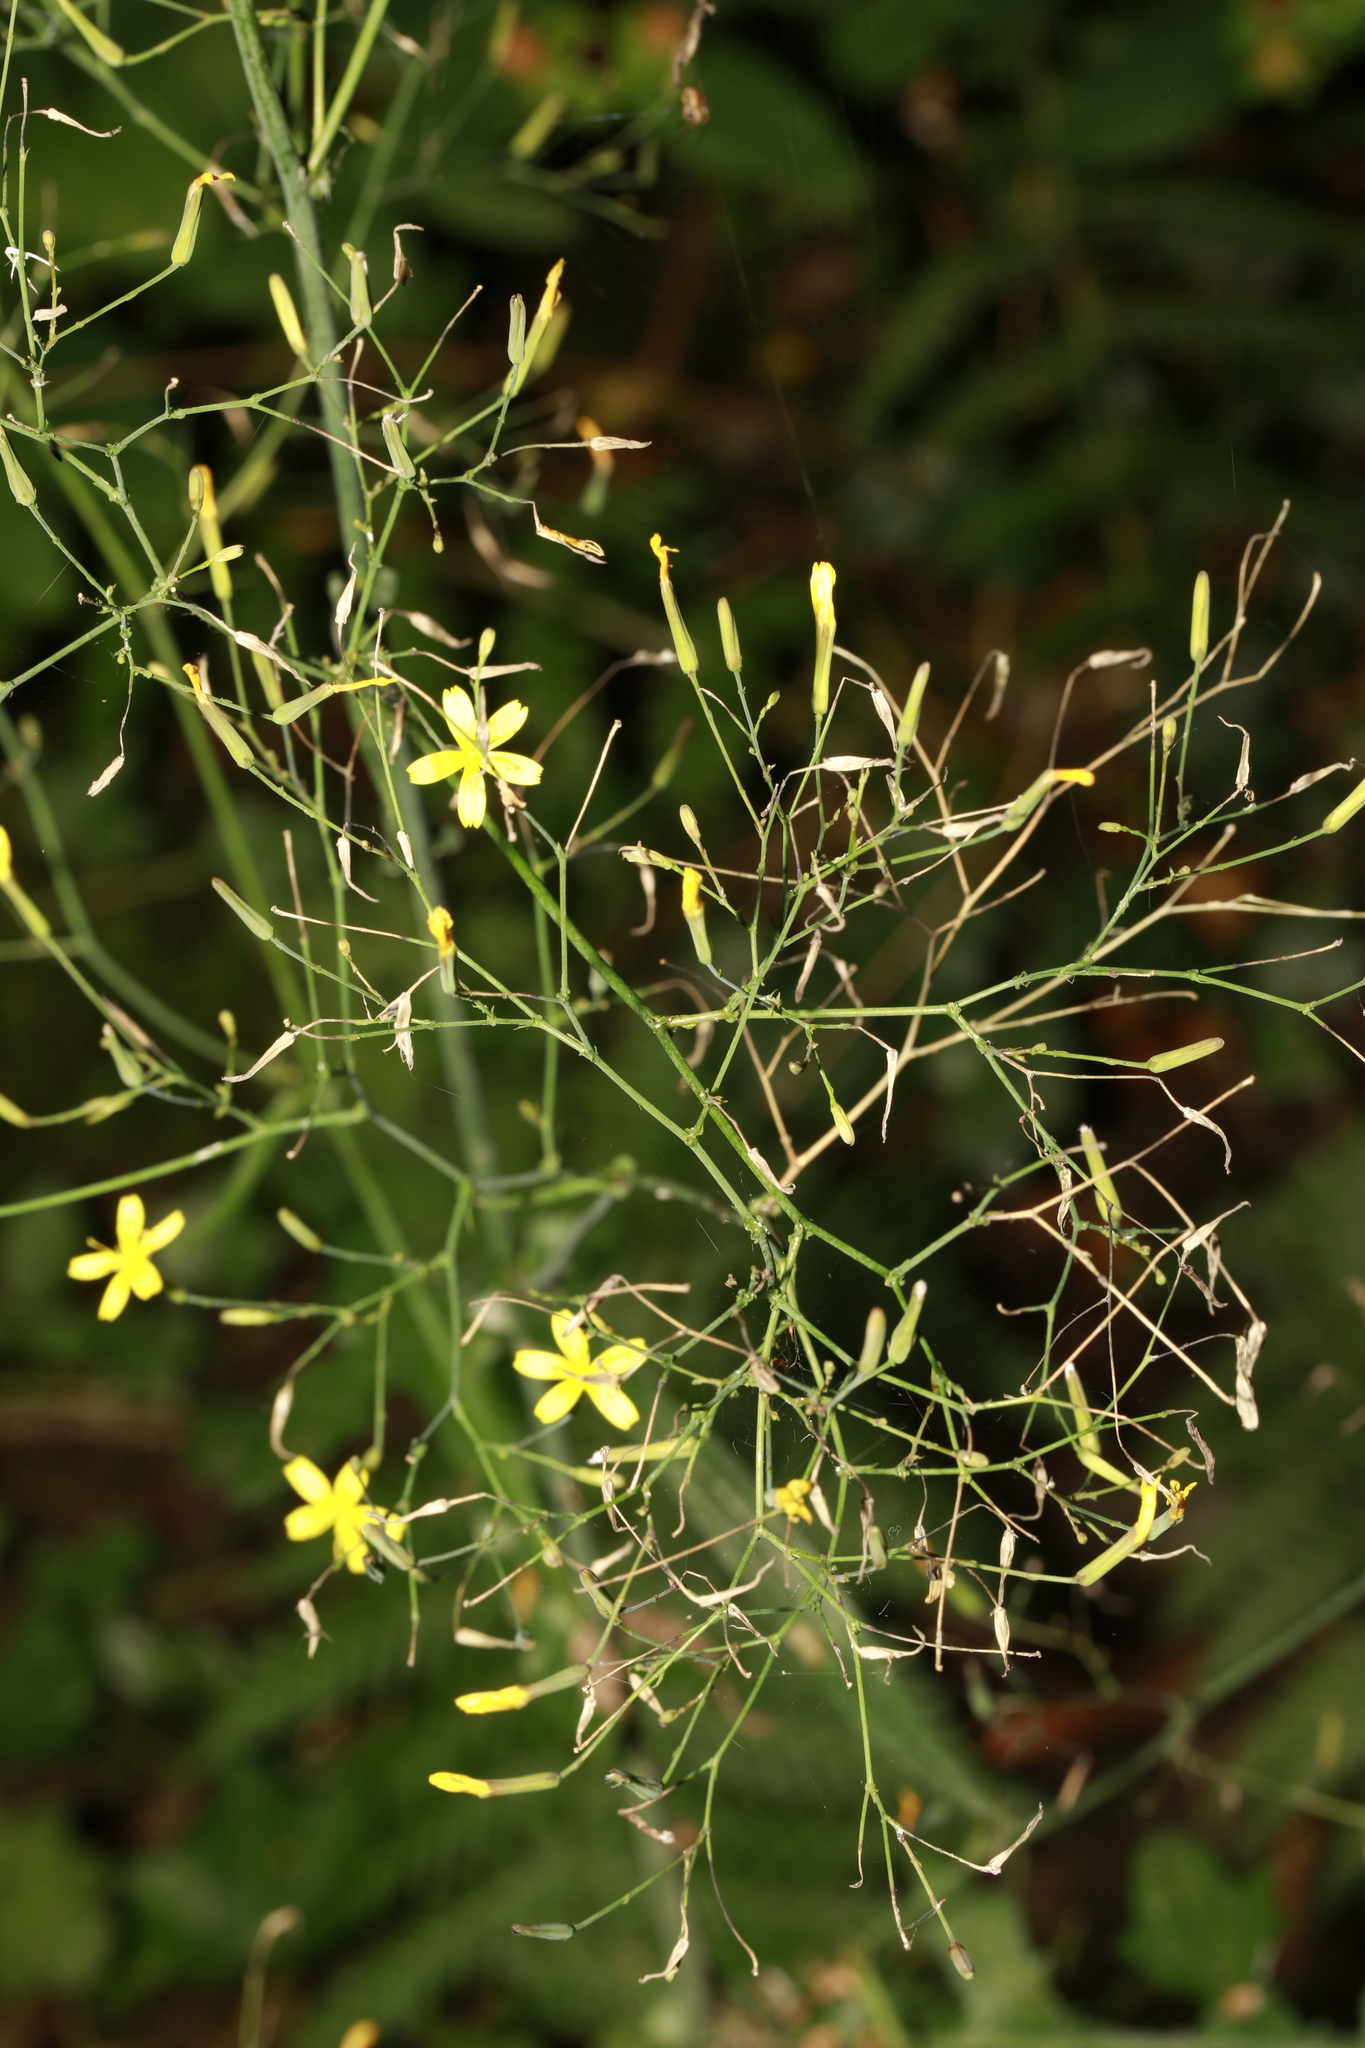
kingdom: Plantae
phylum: Tracheophyta
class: Magnoliopsida
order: Asterales
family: Asteraceae
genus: Mycelis
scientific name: Mycelis muralis
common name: Wall lettuce
